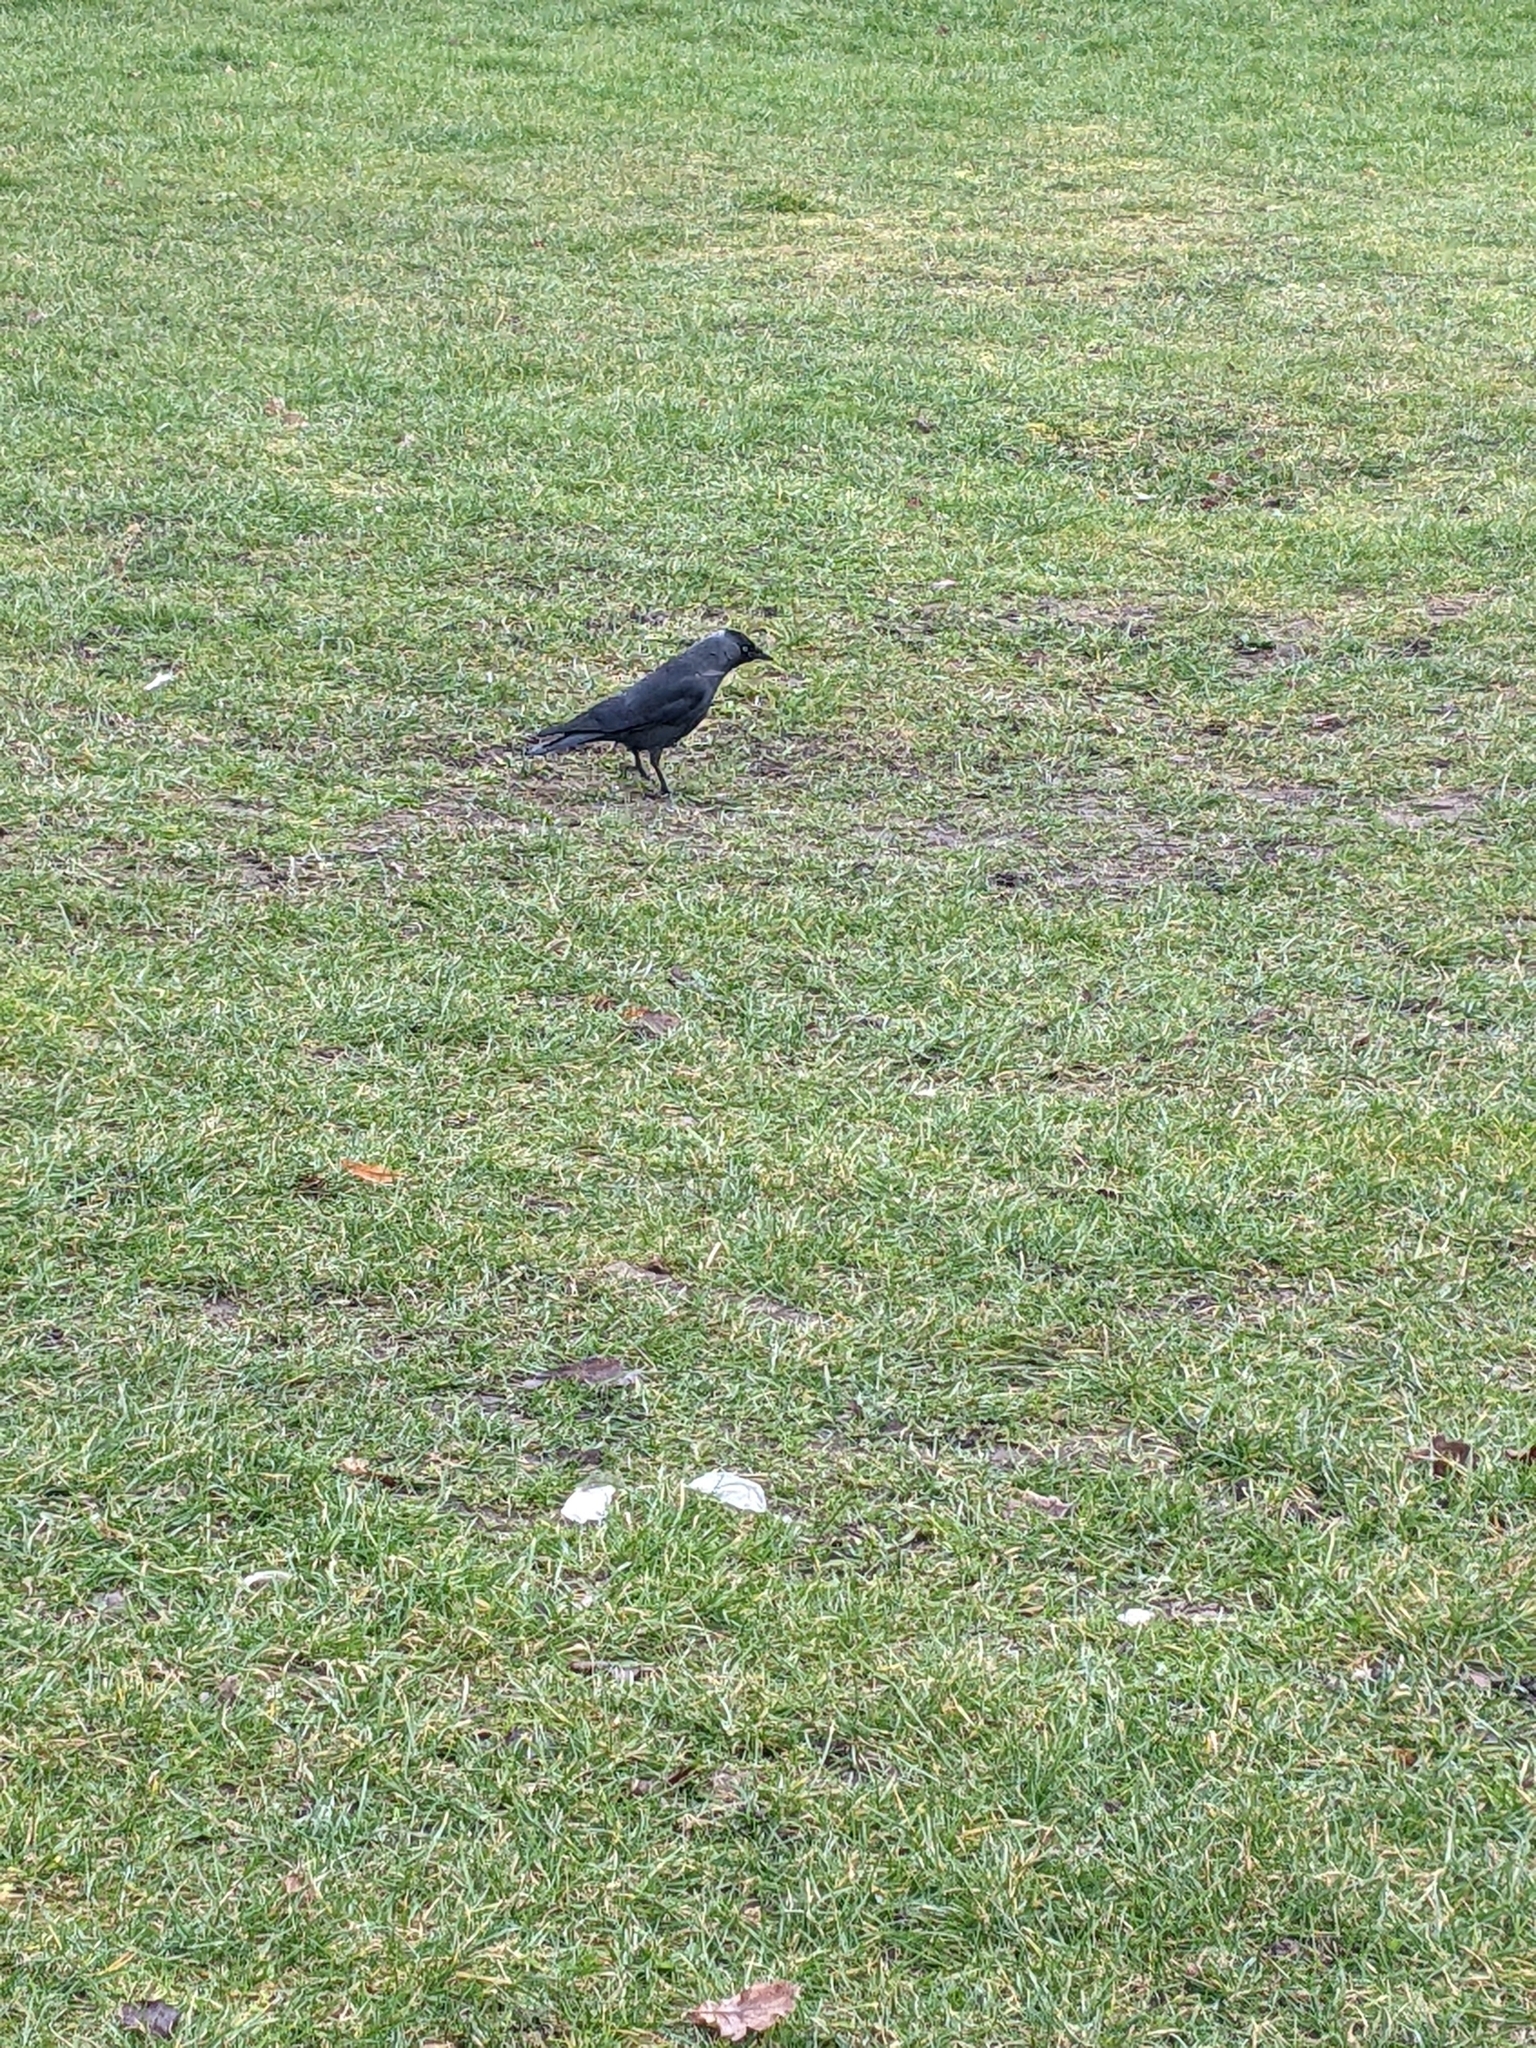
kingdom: Animalia
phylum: Chordata
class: Aves
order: Passeriformes
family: Corvidae
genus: Coloeus
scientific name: Coloeus monedula
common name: Western jackdaw
